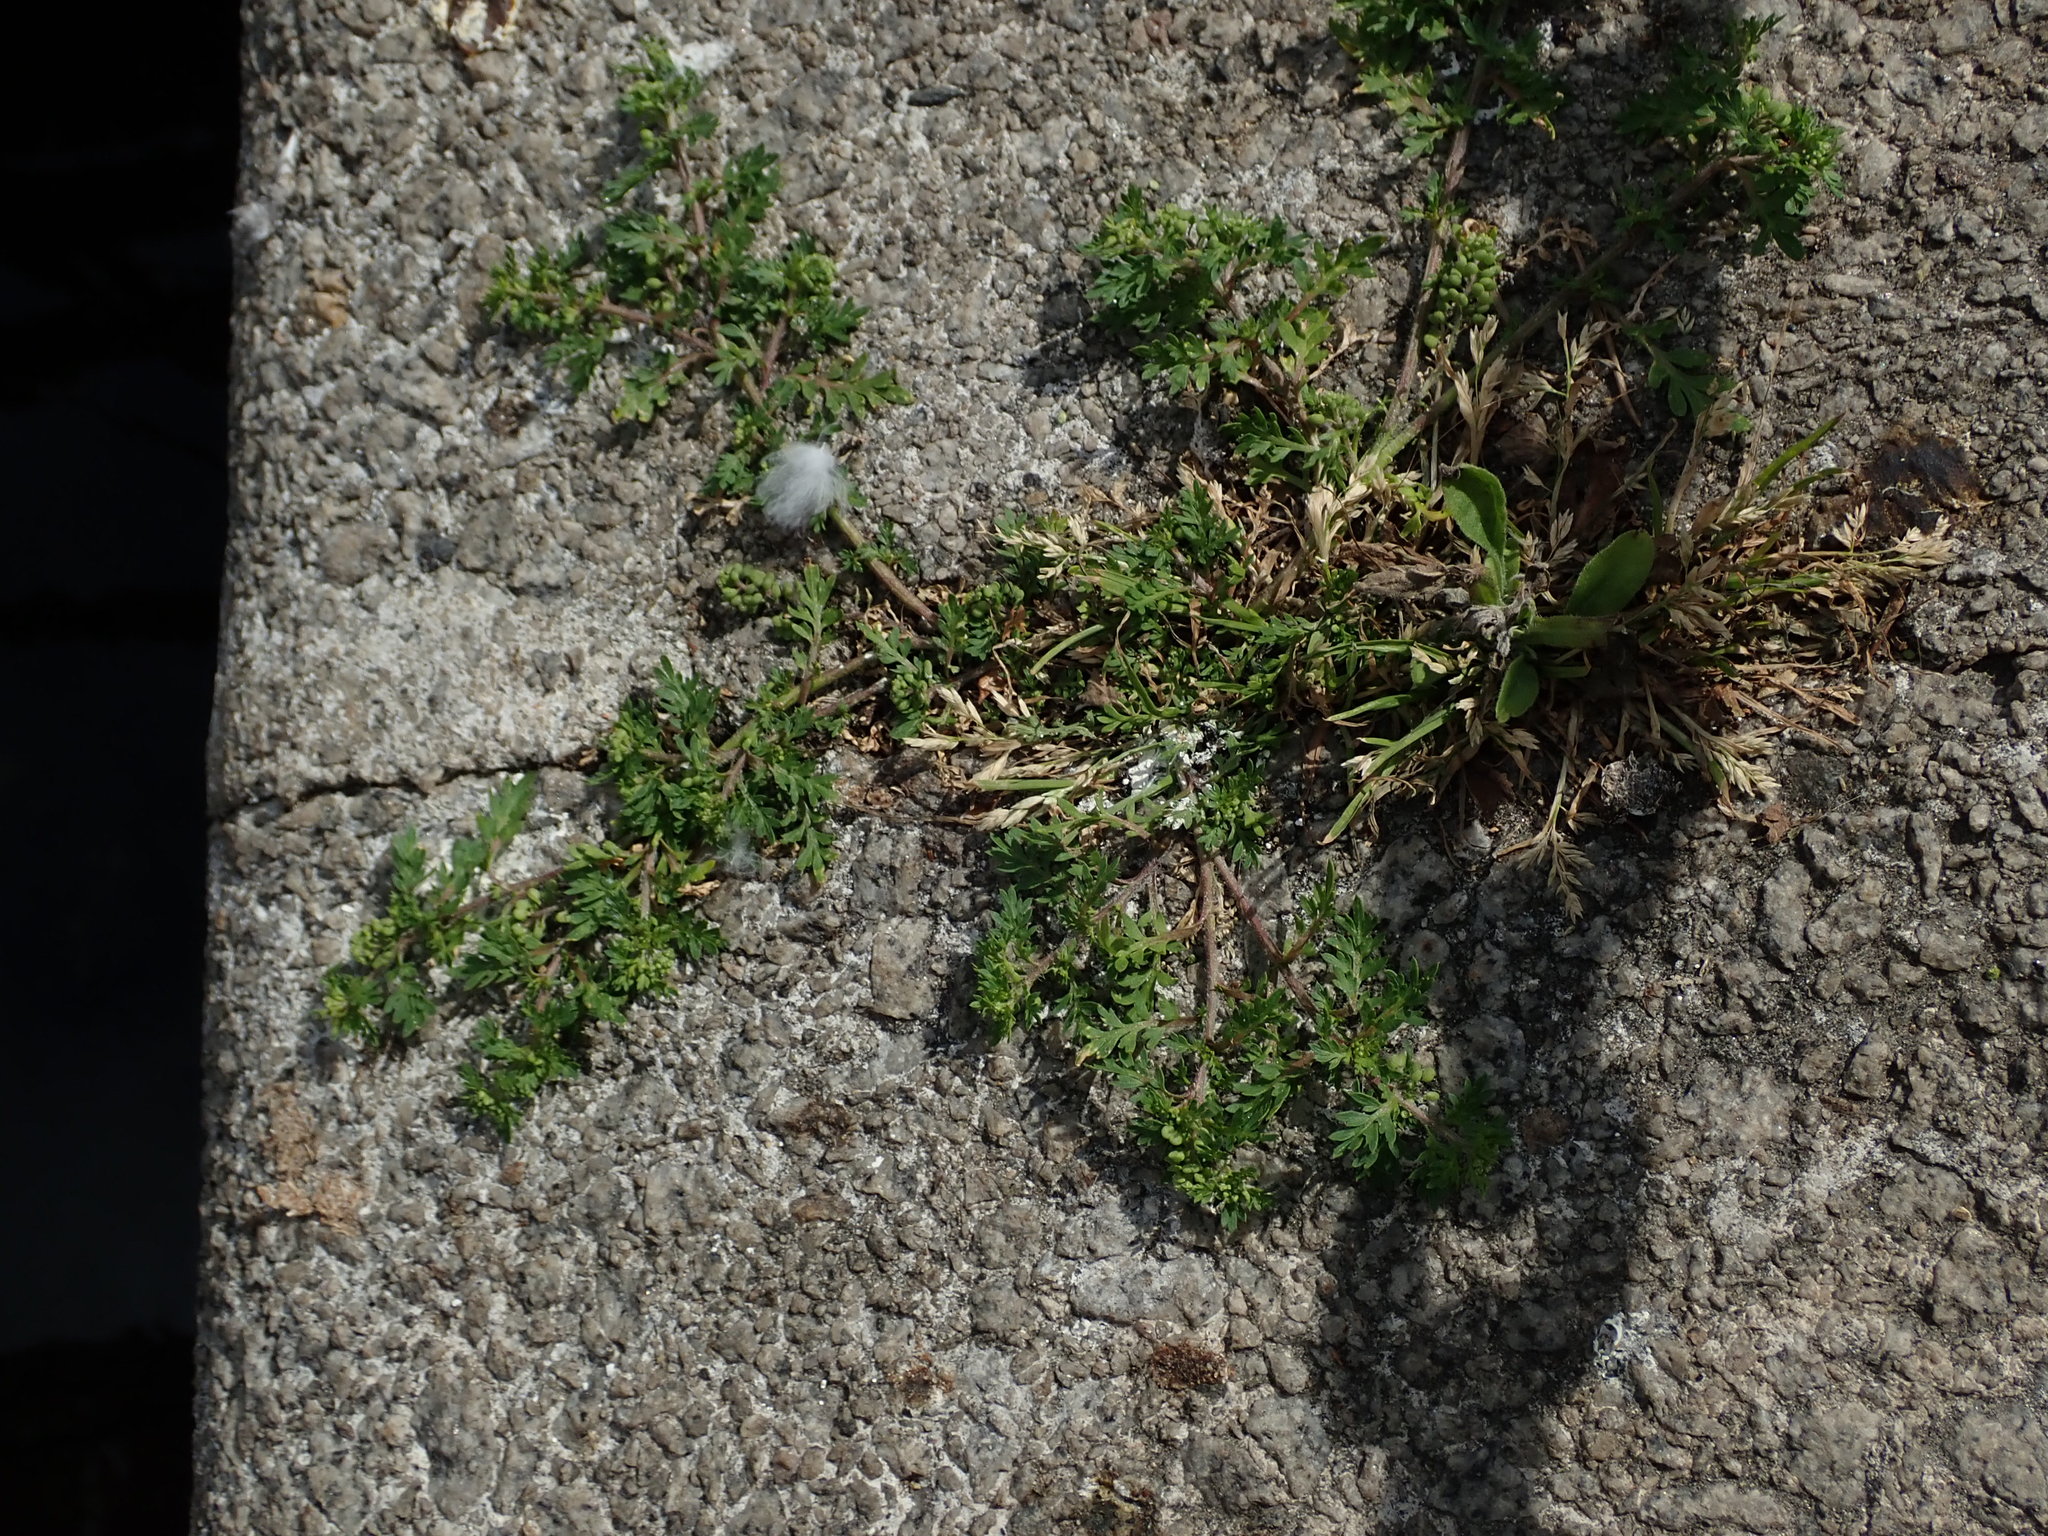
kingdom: Plantae
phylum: Tracheophyta
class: Magnoliopsida
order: Brassicales
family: Brassicaceae
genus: Lepidium
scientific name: Lepidium didymum
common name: Lesser swinecress
